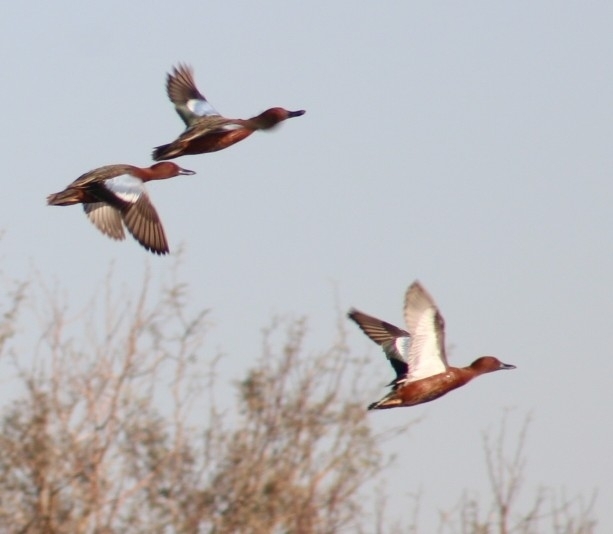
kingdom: Animalia
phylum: Chordata
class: Aves
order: Anseriformes
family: Anatidae
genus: Spatula
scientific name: Spatula cyanoptera
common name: Cinnamon teal
